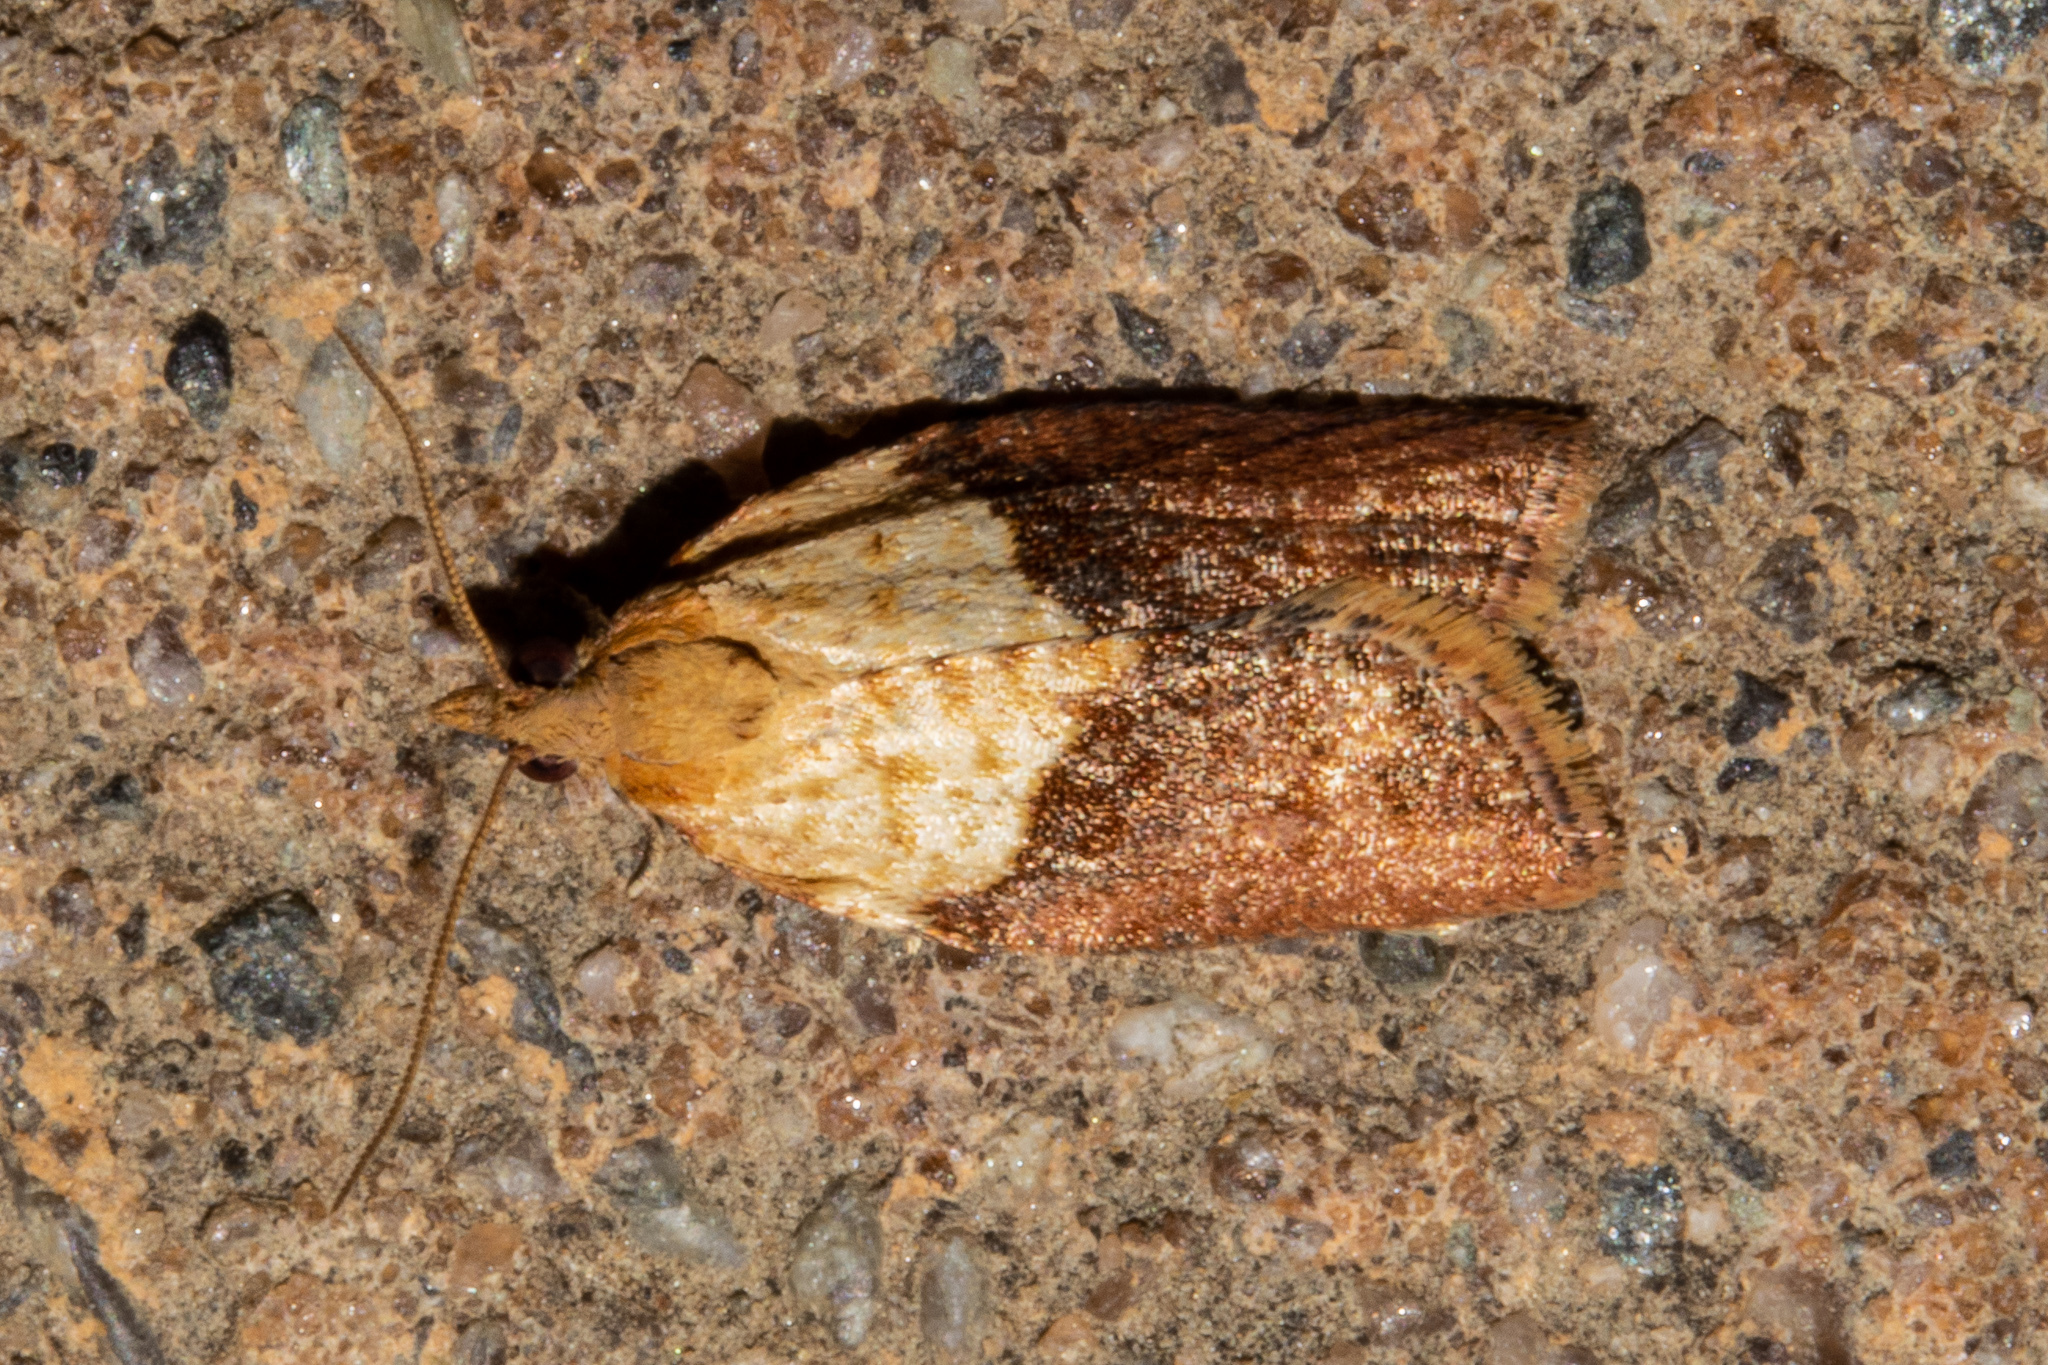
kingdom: Animalia
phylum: Arthropoda
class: Insecta
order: Lepidoptera
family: Tortricidae
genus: Epiphyas
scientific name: Epiphyas postvittana
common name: Light brown apple moth
